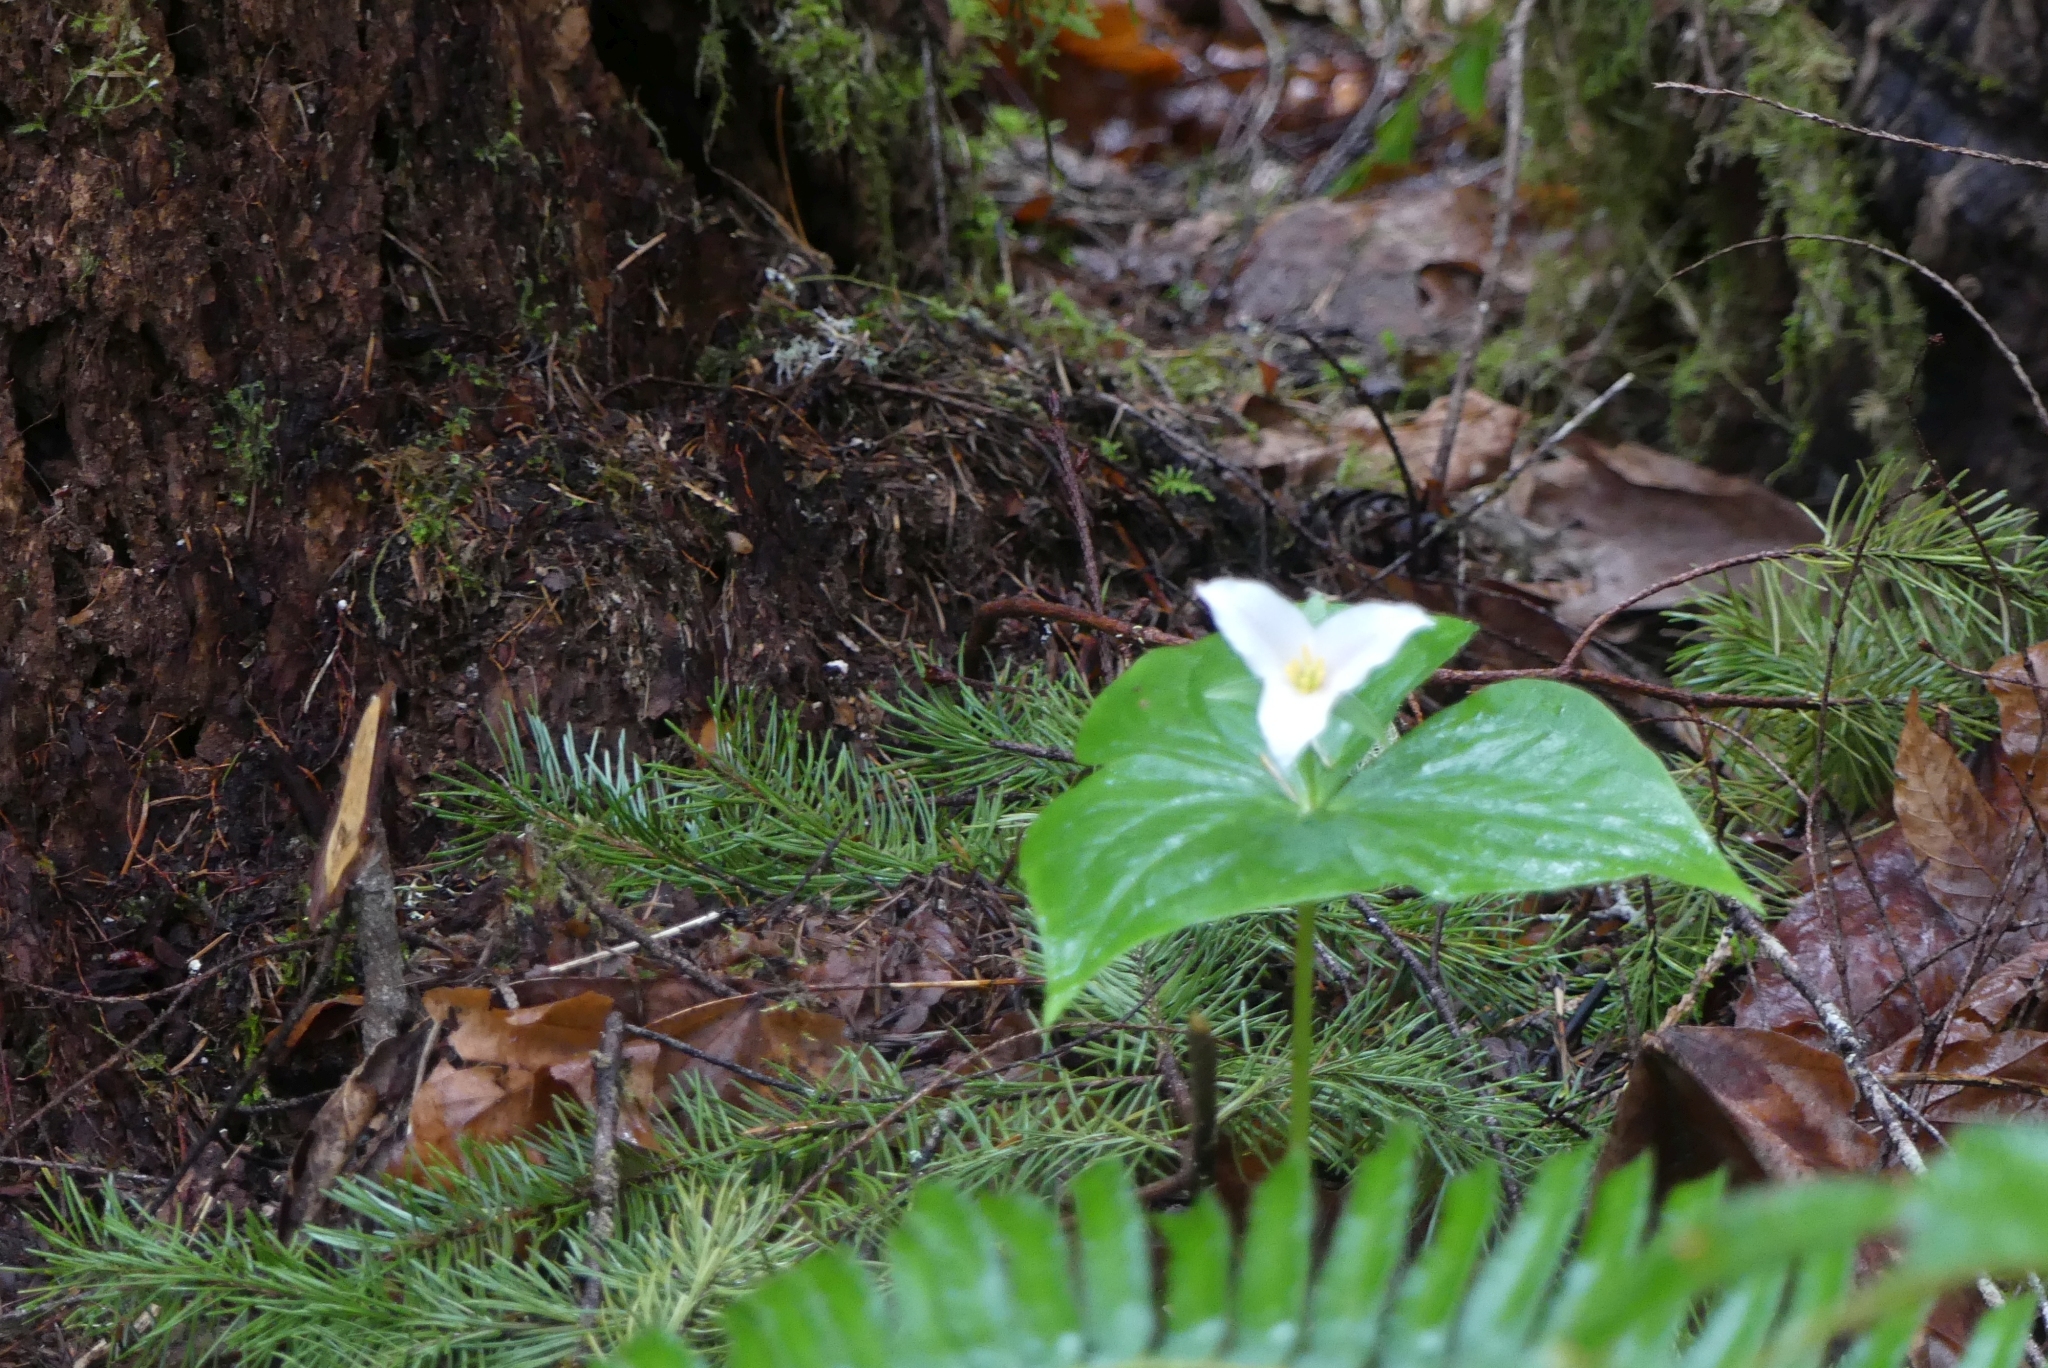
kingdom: Plantae
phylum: Tracheophyta
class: Liliopsida
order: Liliales
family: Melanthiaceae
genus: Trillium
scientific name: Trillium ovatum
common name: Pacific trillium
